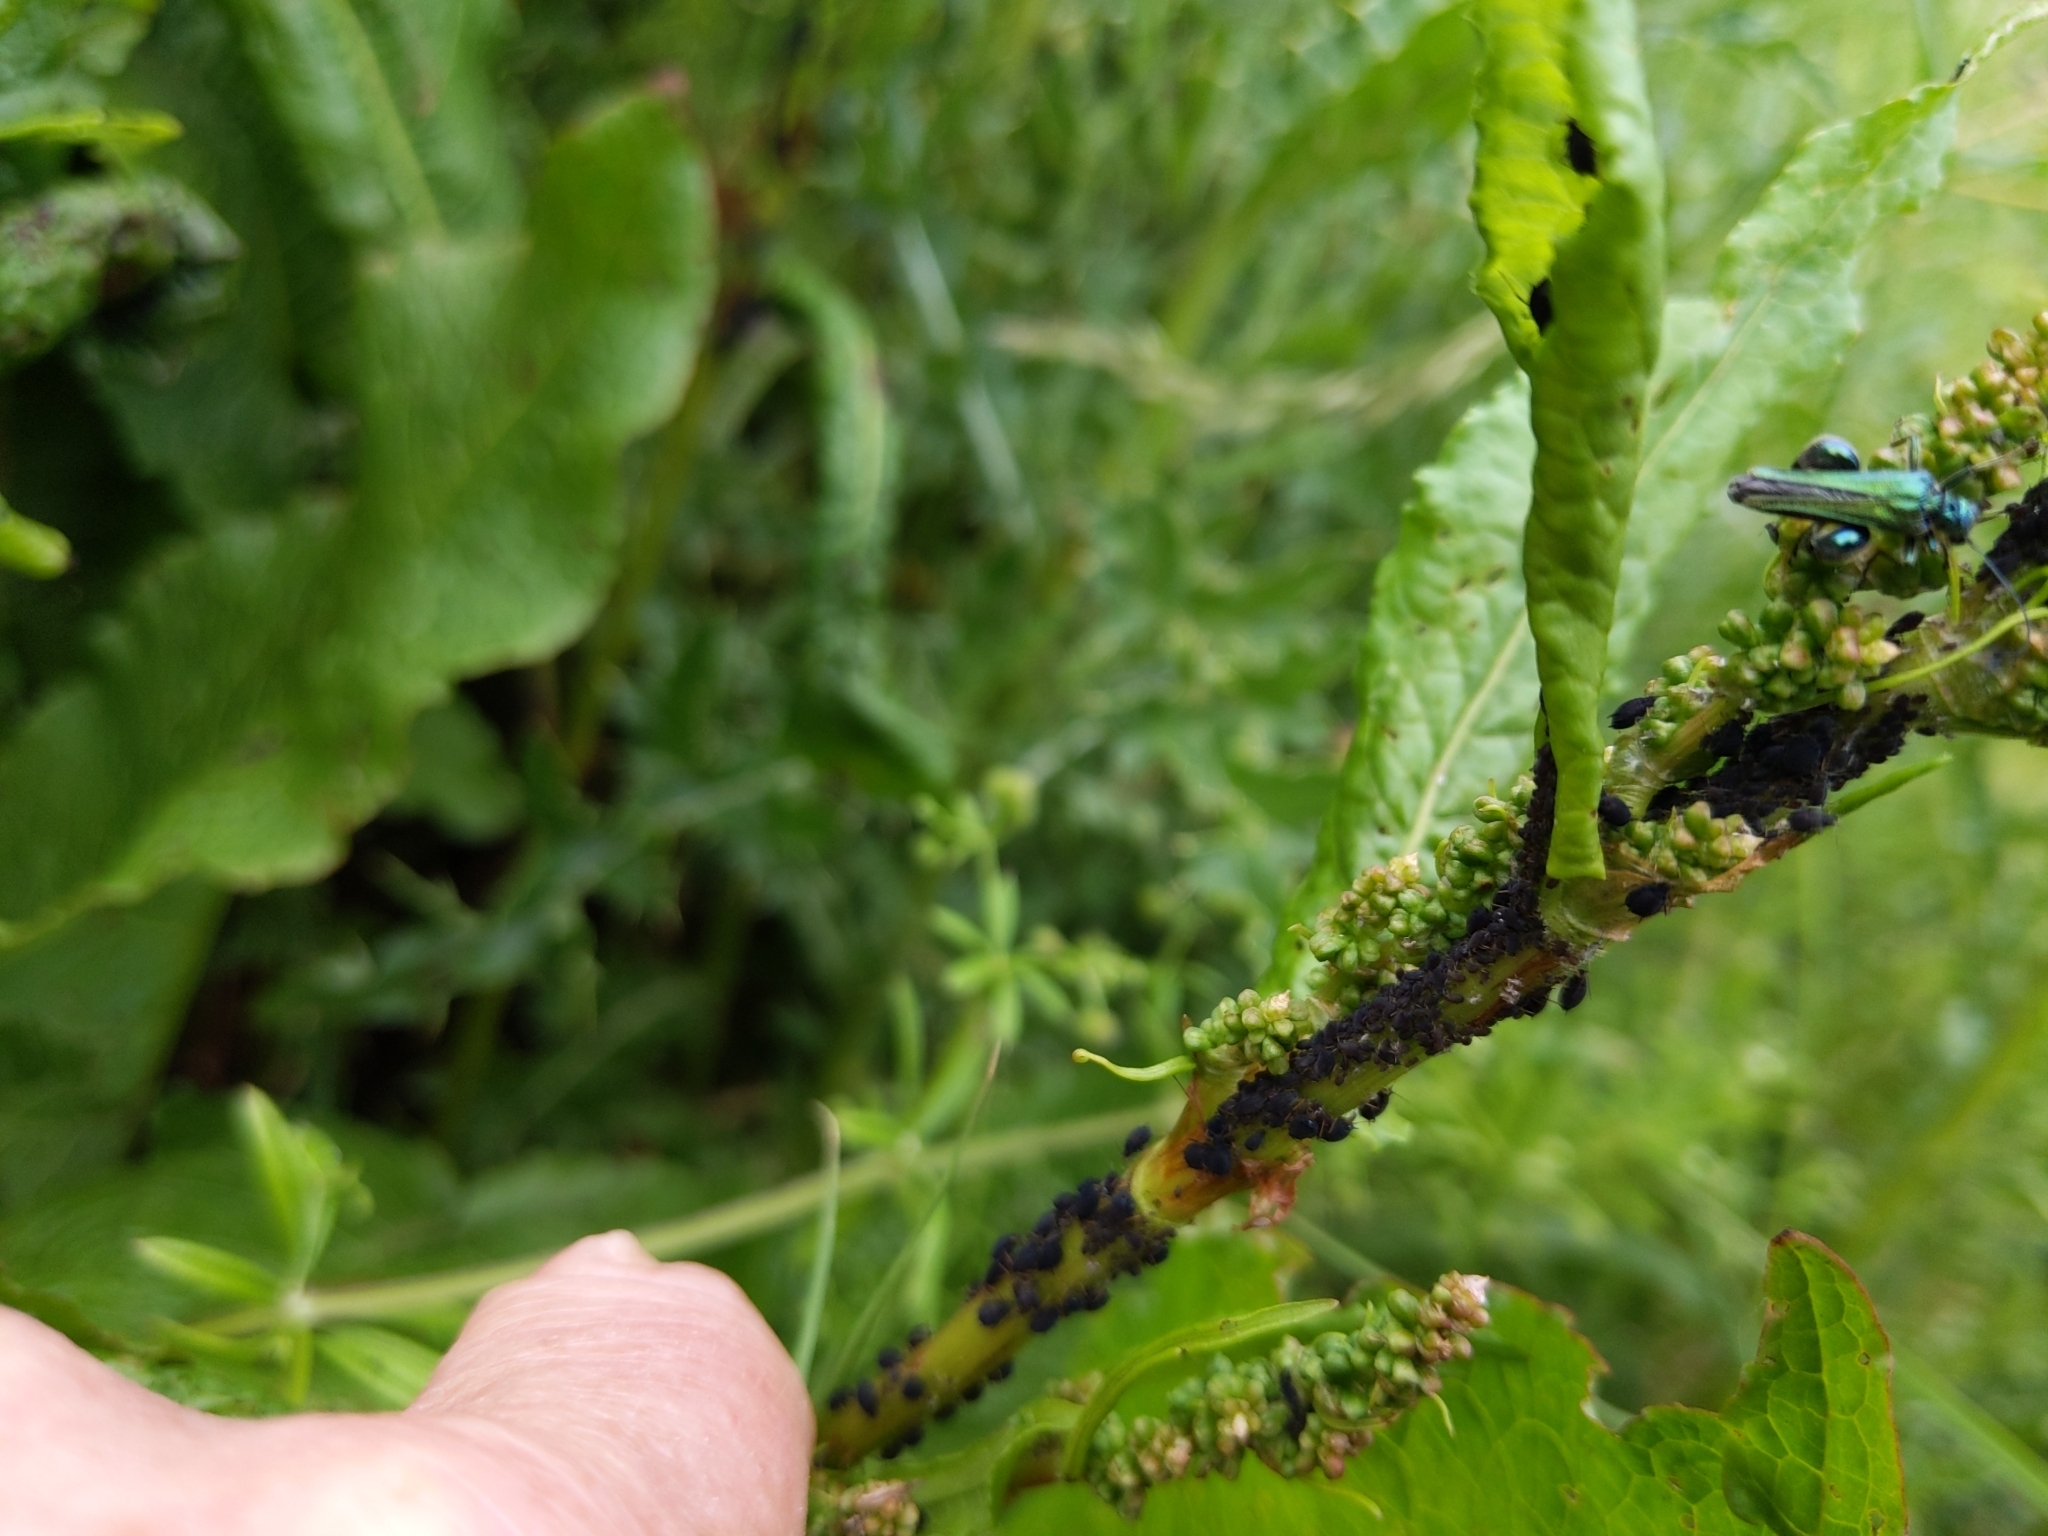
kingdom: Animalia
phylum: Arthropoda
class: Insecta
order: Coleoptera
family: Oedemeridae
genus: Oedemera
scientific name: Oedemera nobilis
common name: Swollen-thighed beetle
